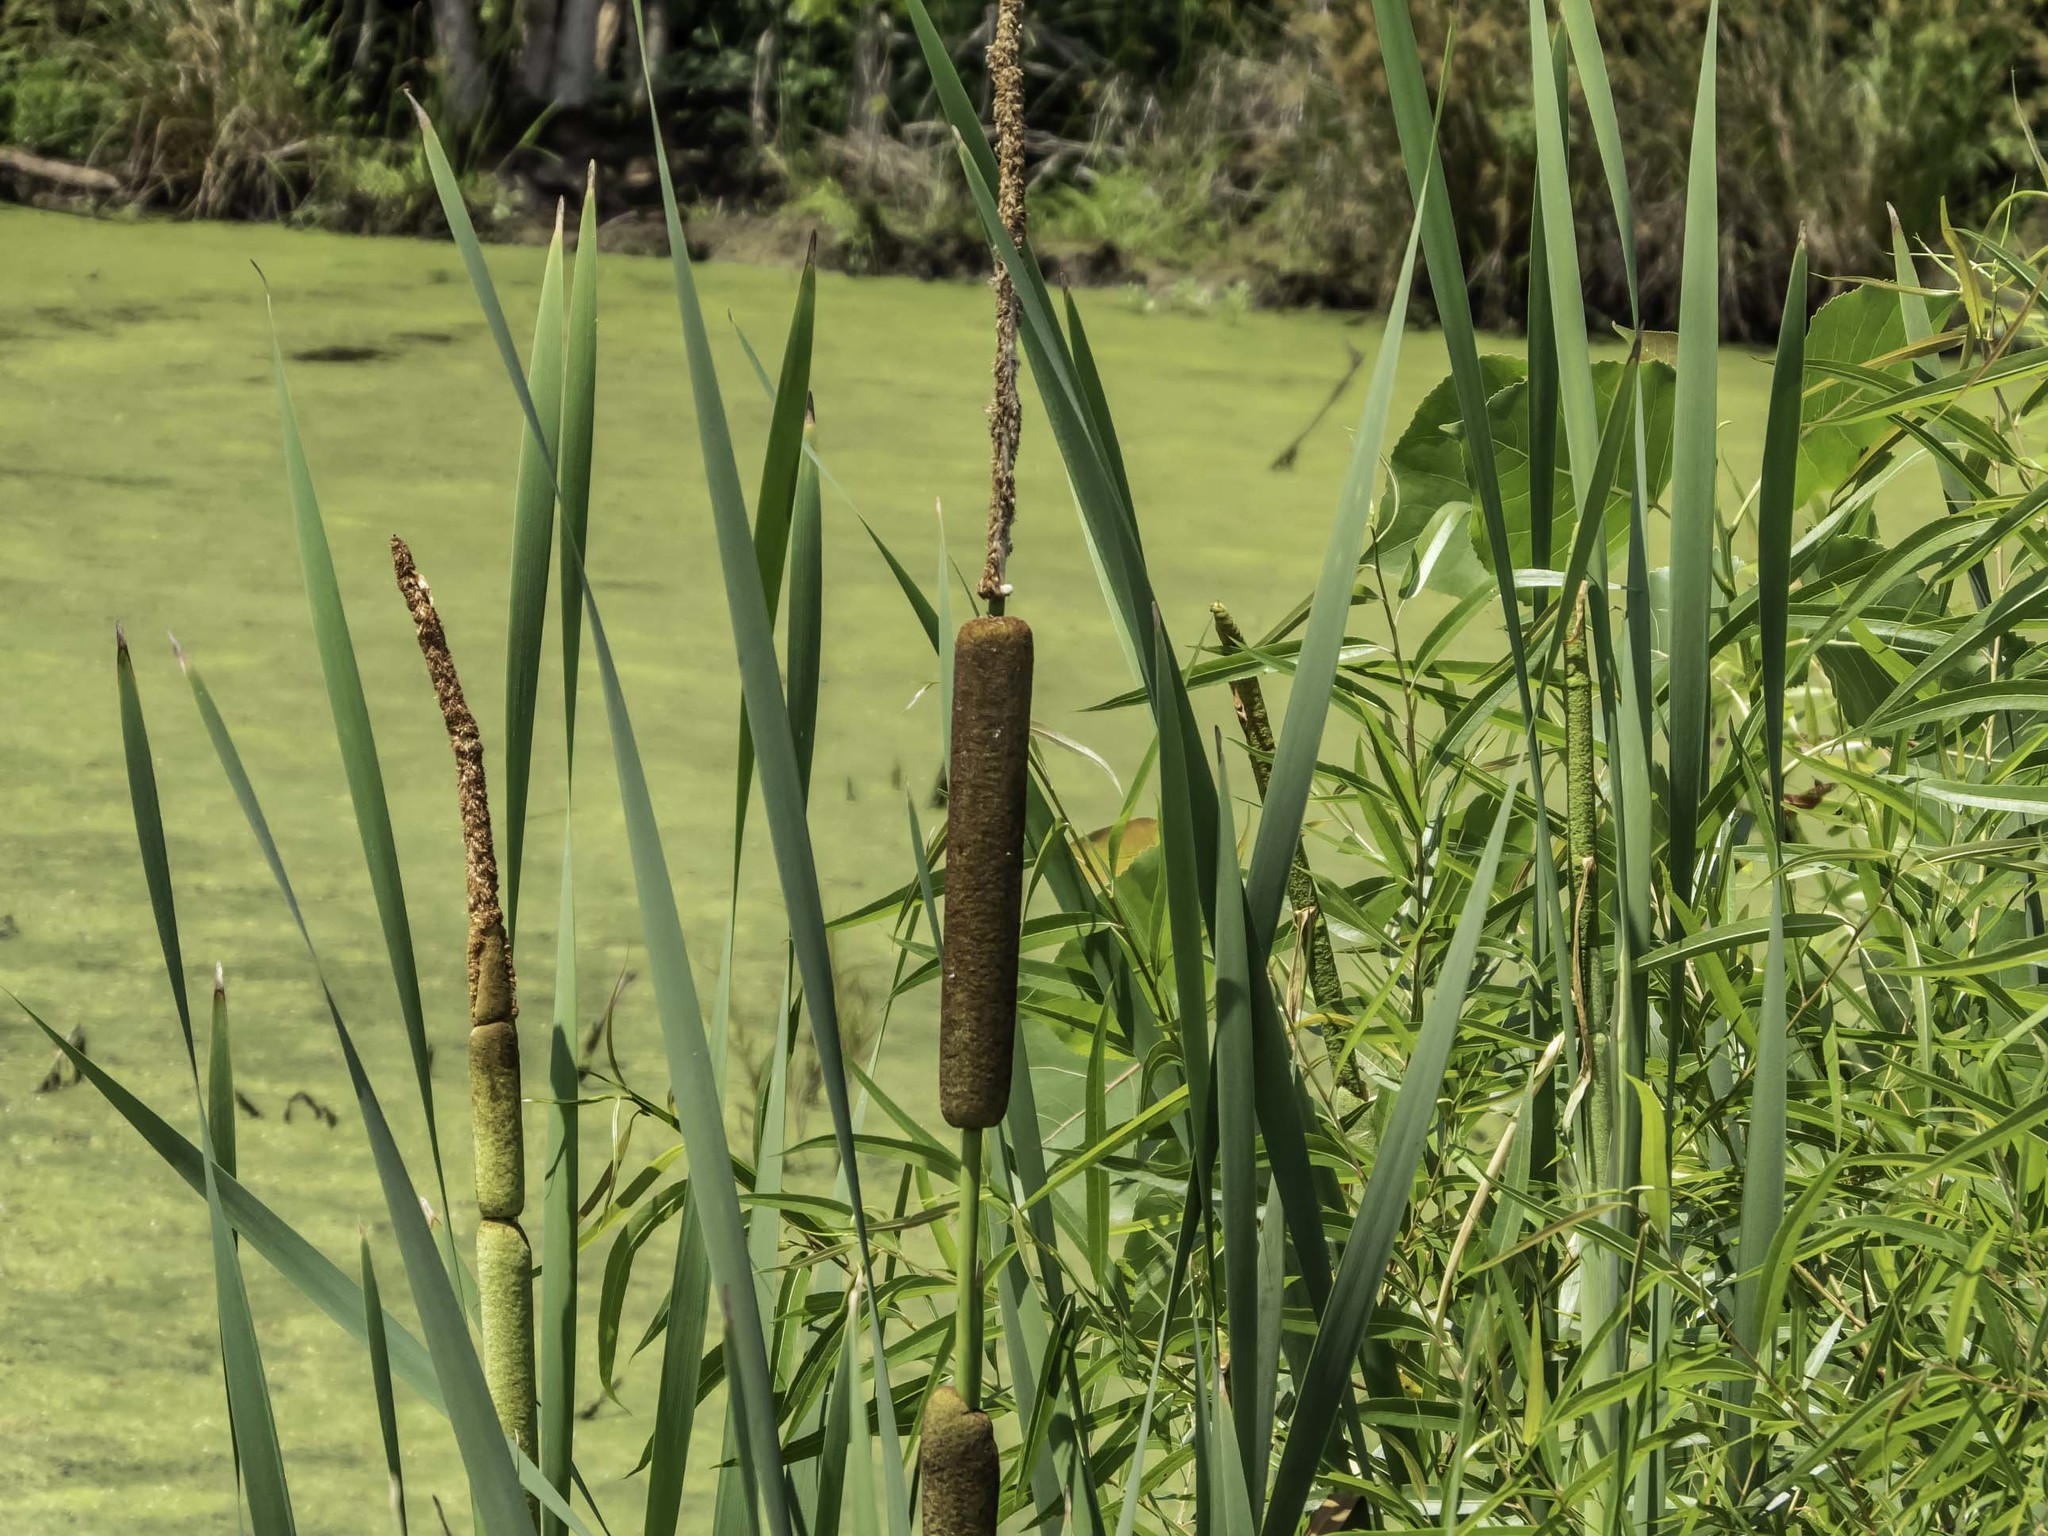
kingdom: Plantae
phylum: Tracheophyta
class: Liliopsida
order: Poales
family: Typhaceae
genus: Typha
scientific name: Typha latifolia
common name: Broadleaf cattail
